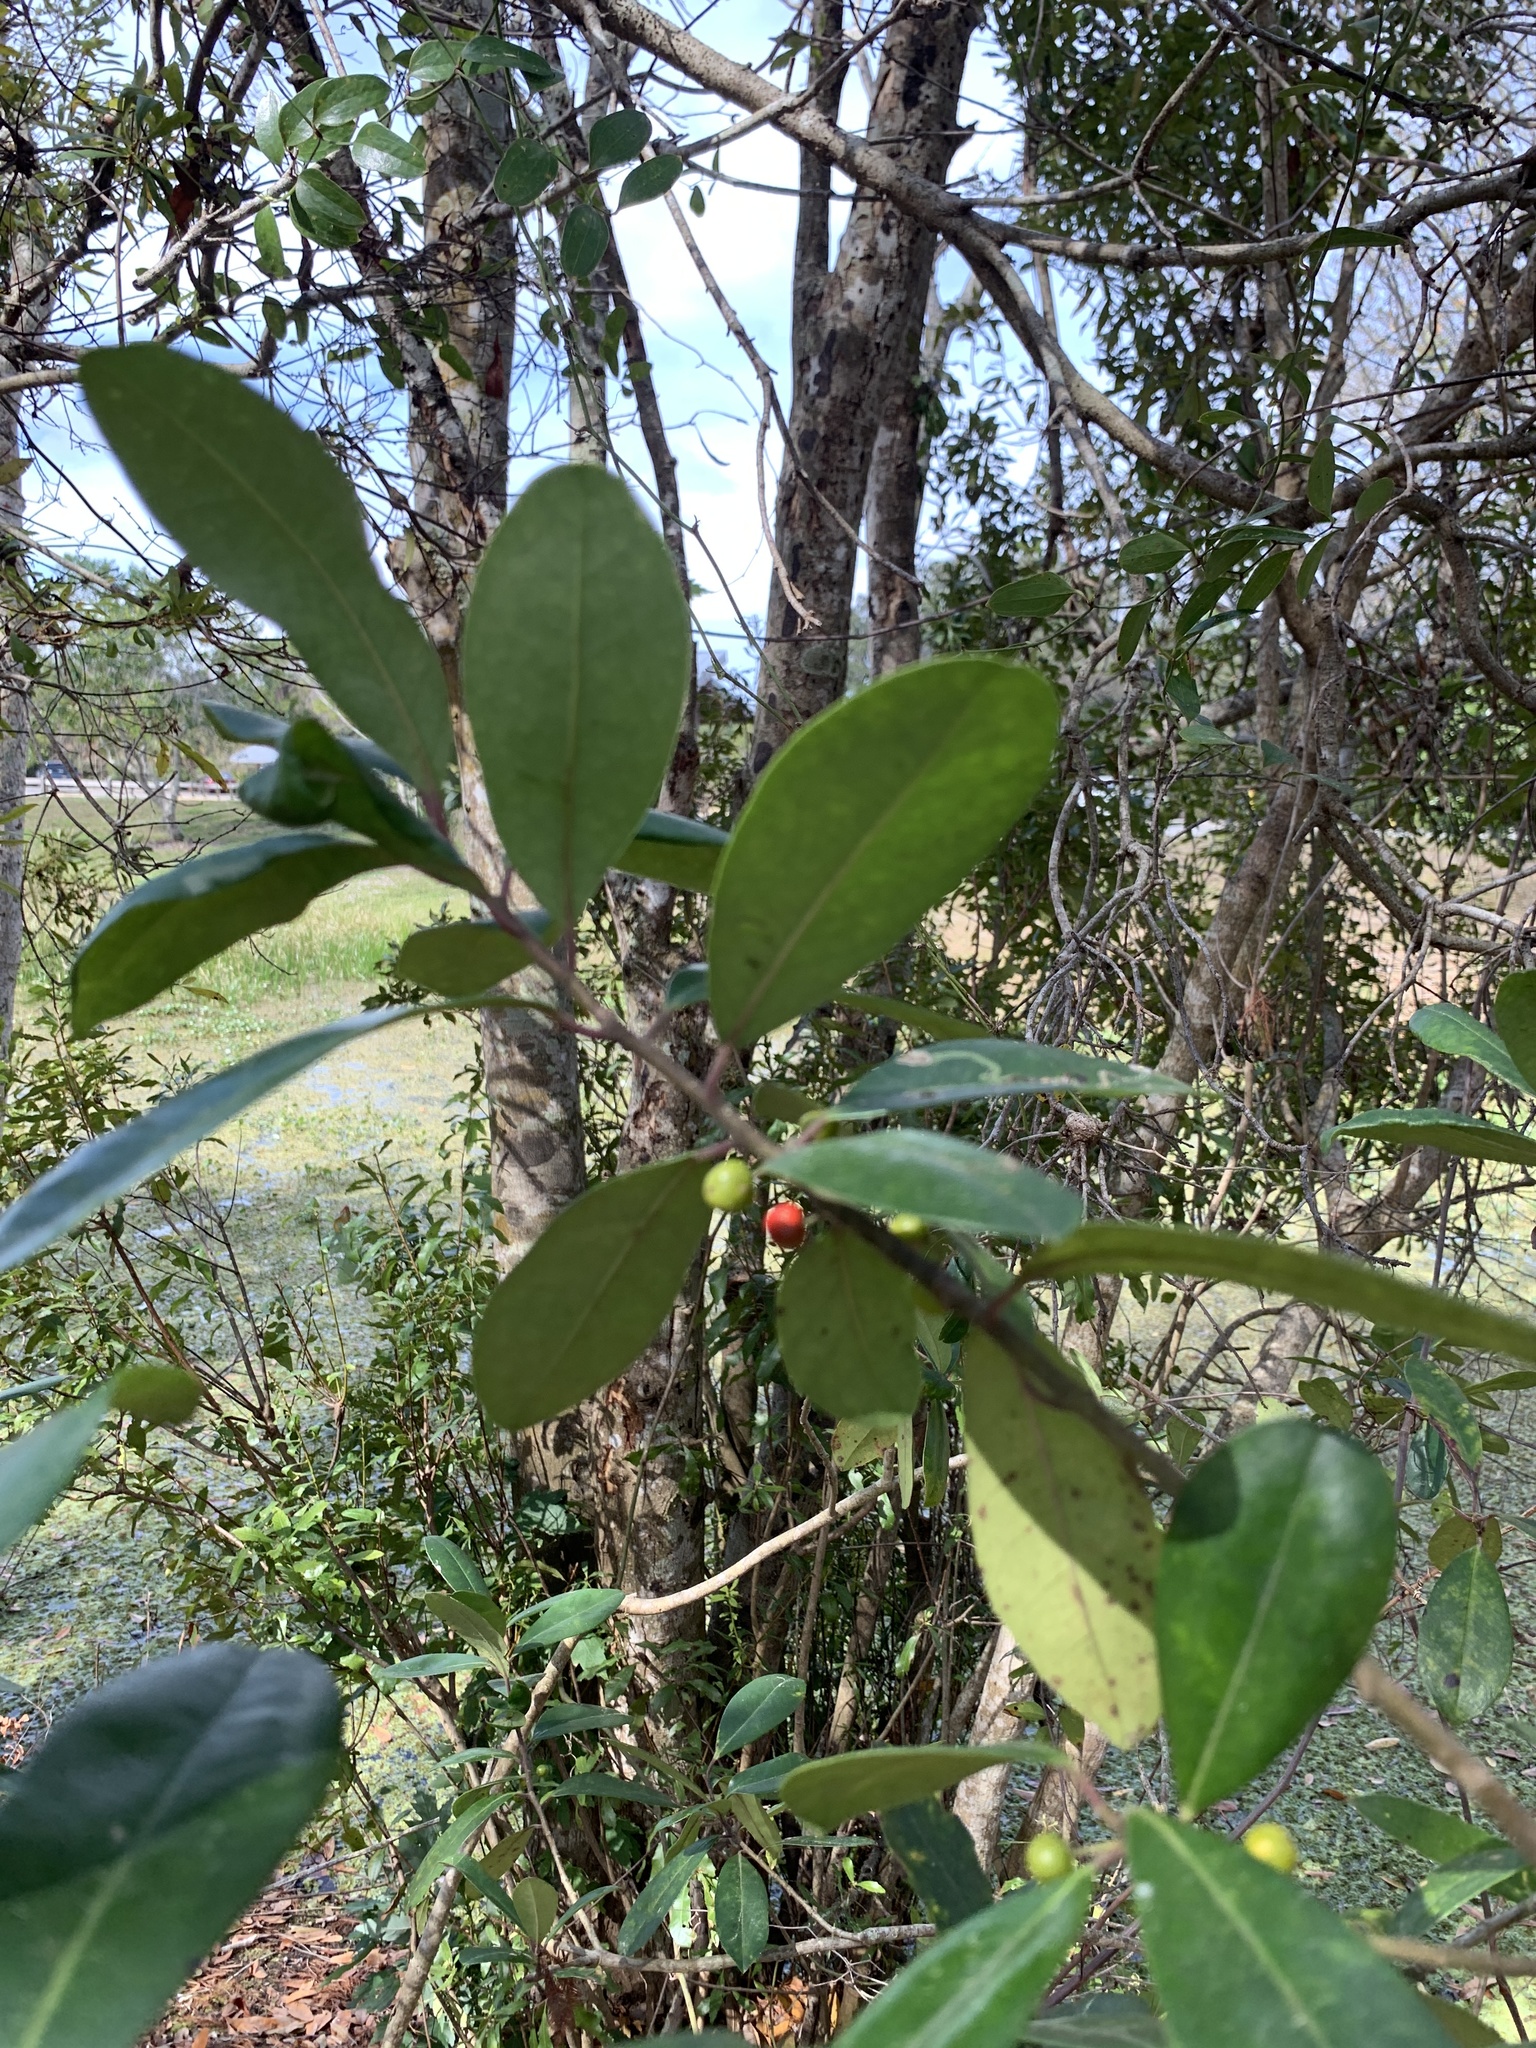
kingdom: Plantae
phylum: Tracheophyta
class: Magnoliopsida
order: Aquifoliales
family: Aquifoliaceae
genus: Ilex
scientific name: Ilex cassine
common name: Dahoon
